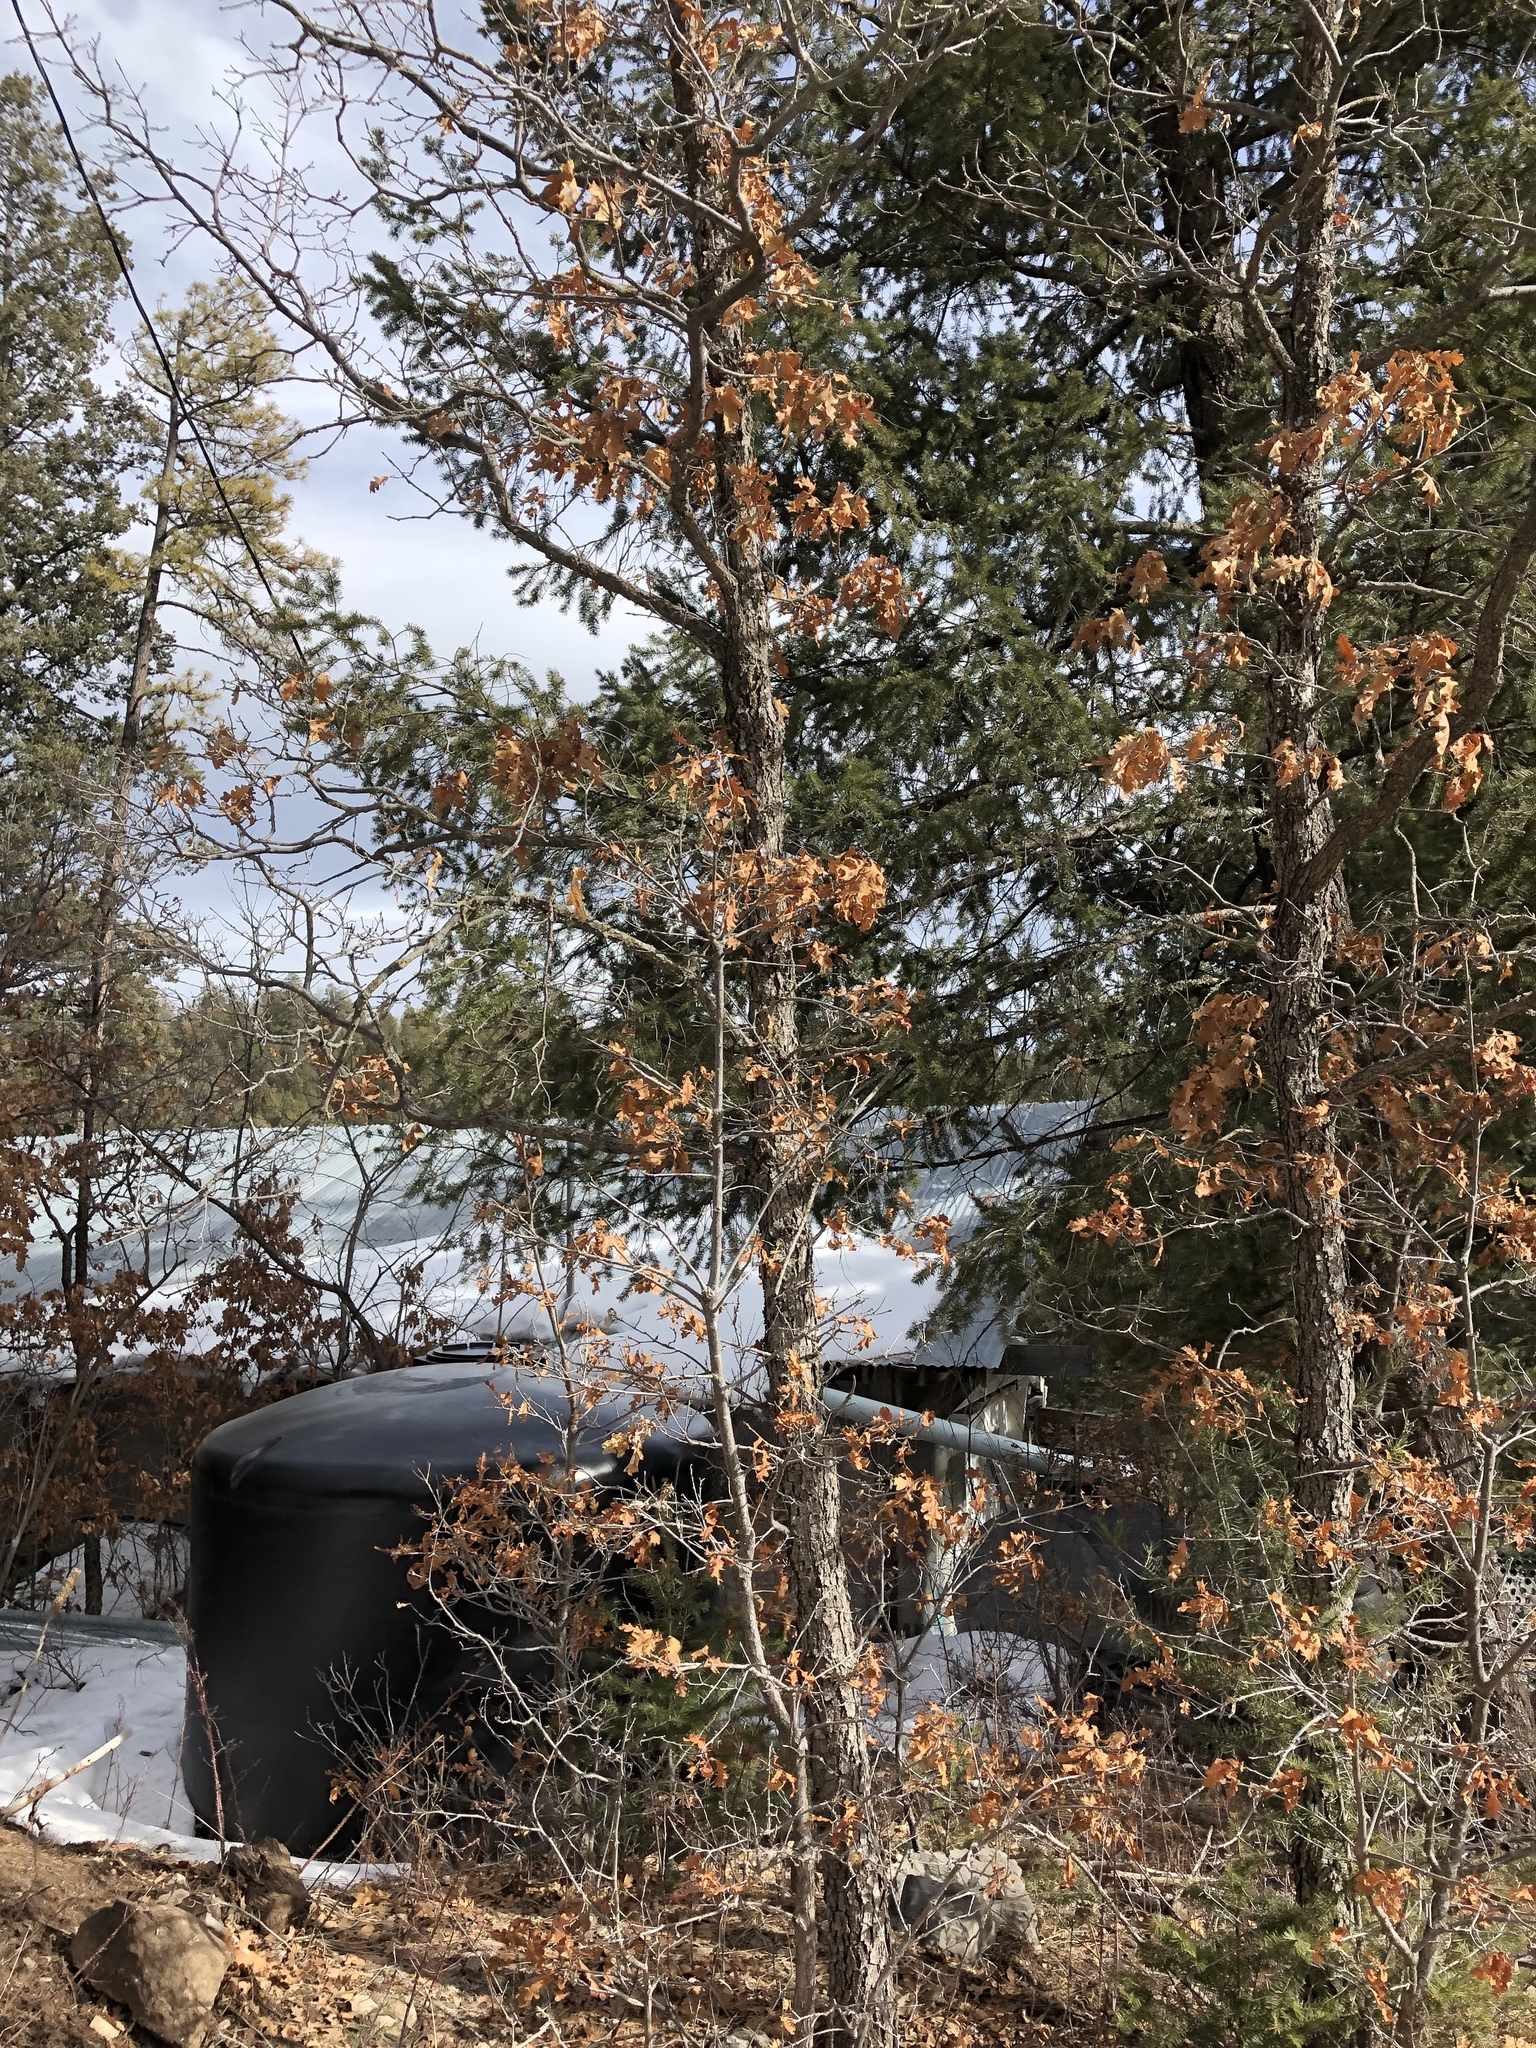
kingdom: Plantae
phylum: Tracheophyta
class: Magnoliopsida
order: Fagales
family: Fagaceae
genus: Quercus
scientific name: Quercus gambelii
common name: Gambel oak
